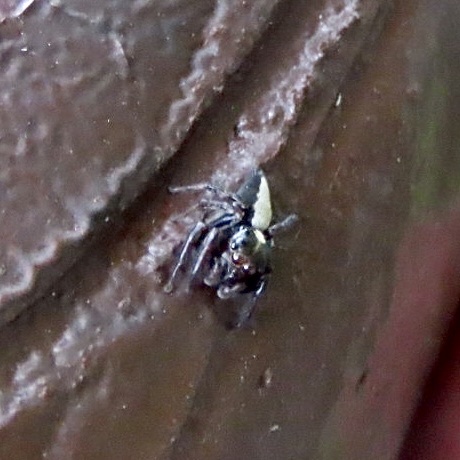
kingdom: Animalia
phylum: Arthropoda
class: Arachnida
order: Araneae
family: Salticidae
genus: Ptocasius
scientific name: Ptocasius strupifer
